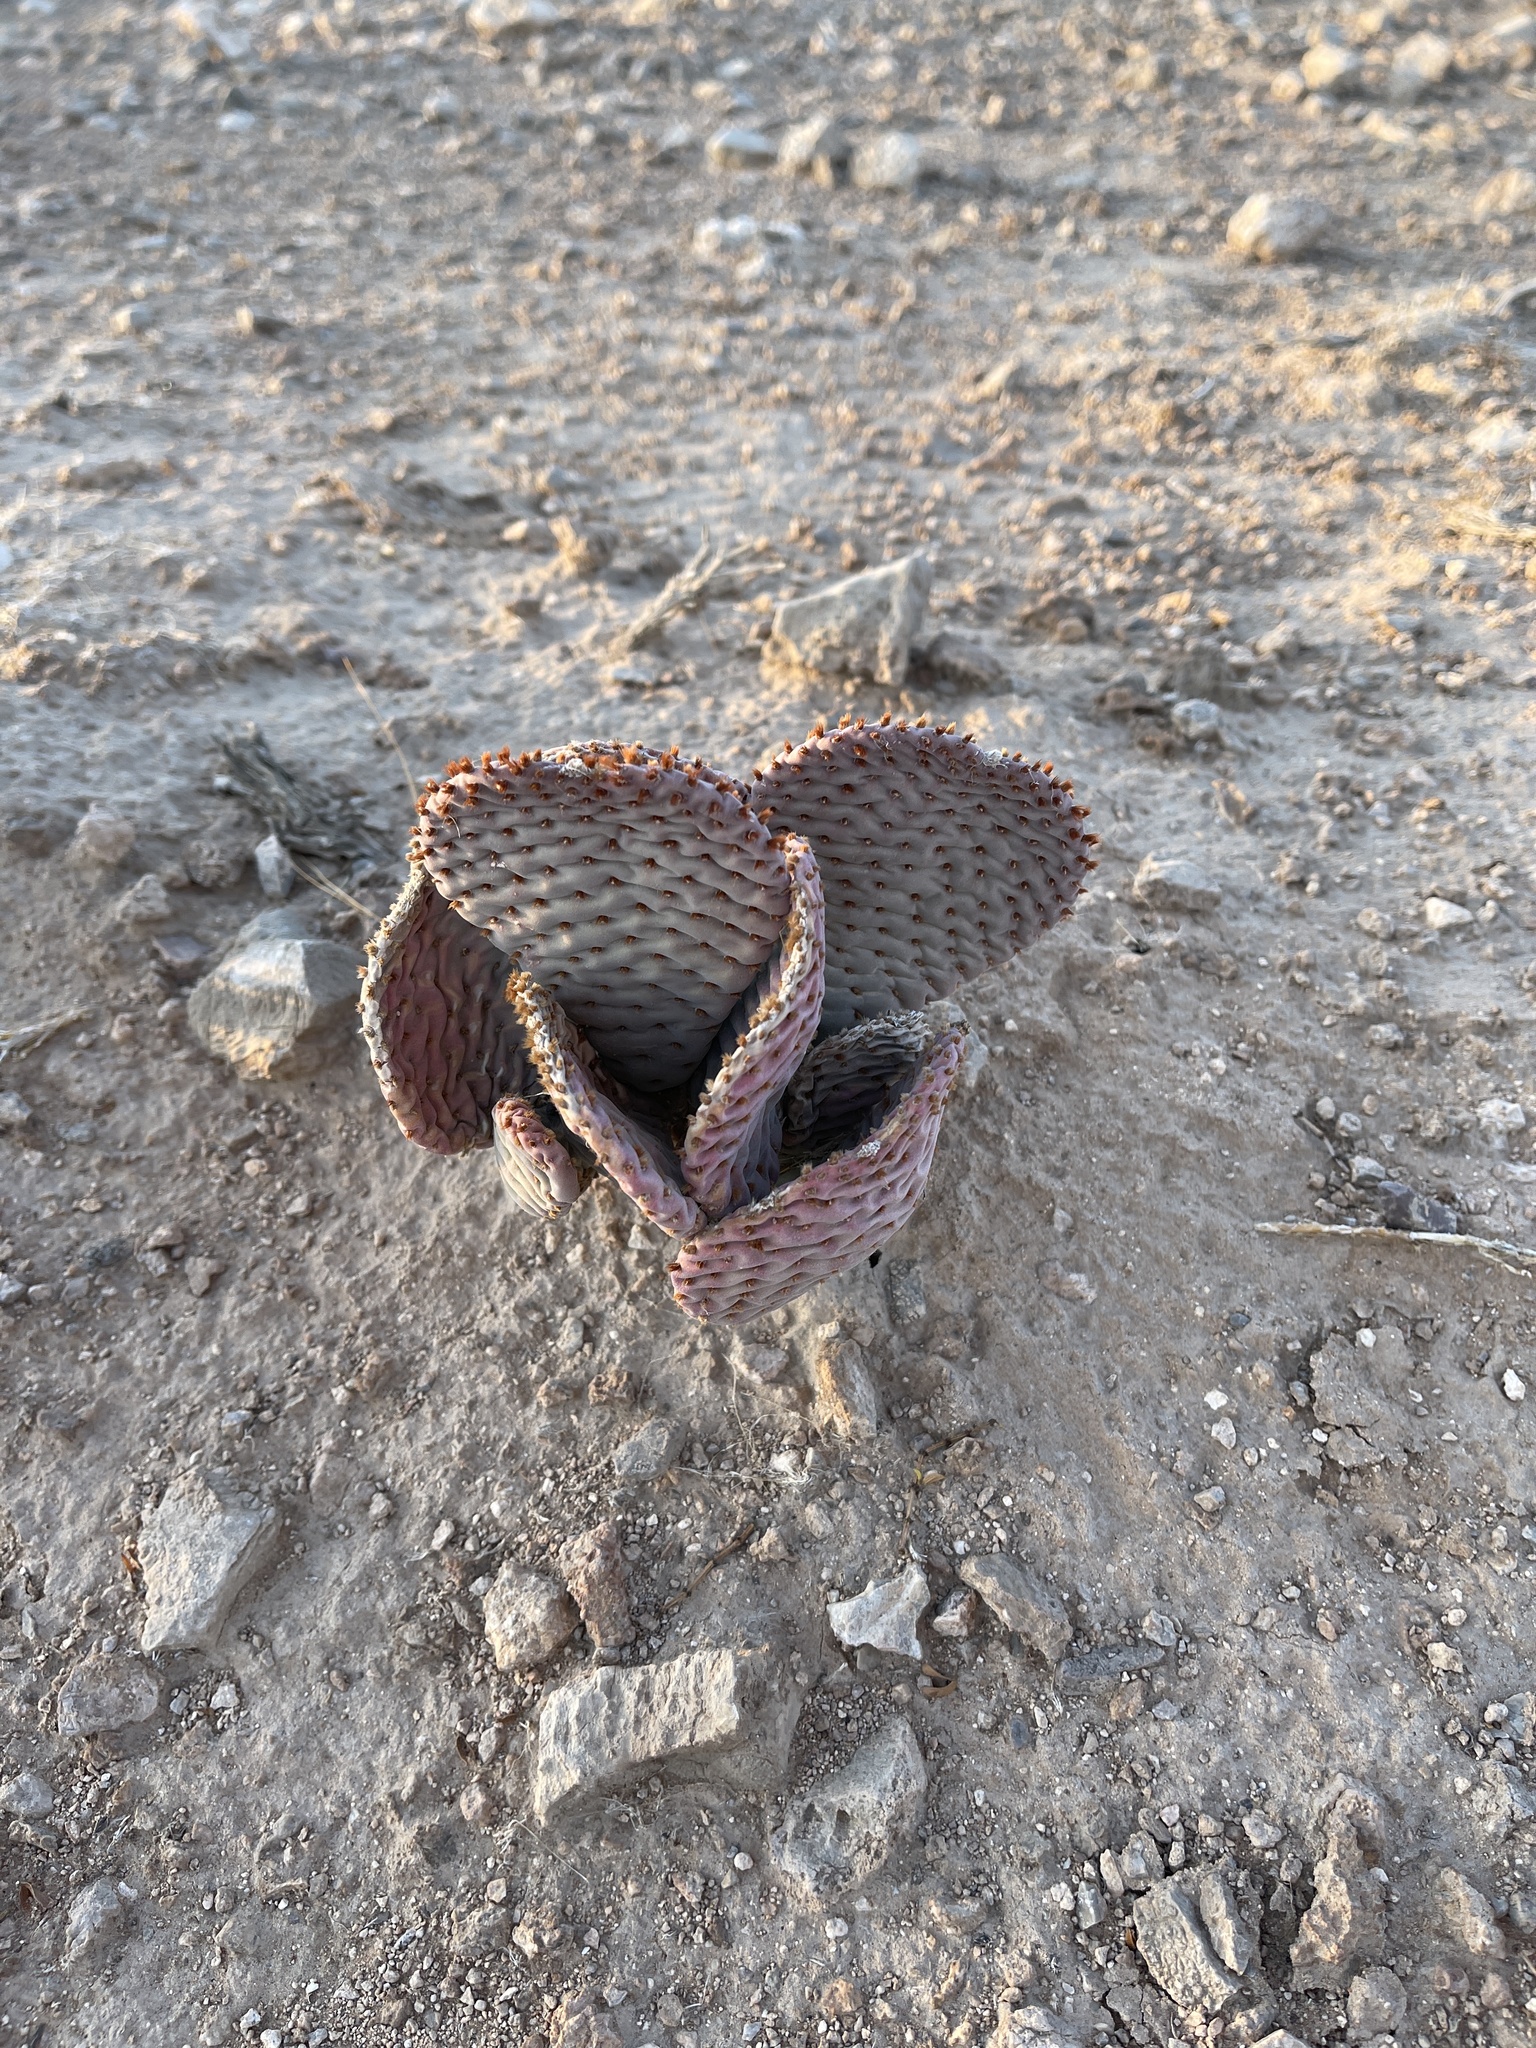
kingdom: Plantae
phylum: Tracheophyta
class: Magnoliopsida
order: Caryophyllales
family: Cactaceae
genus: Opuntia
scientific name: Opuntia basilaris
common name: Beavertail prickly-pear
